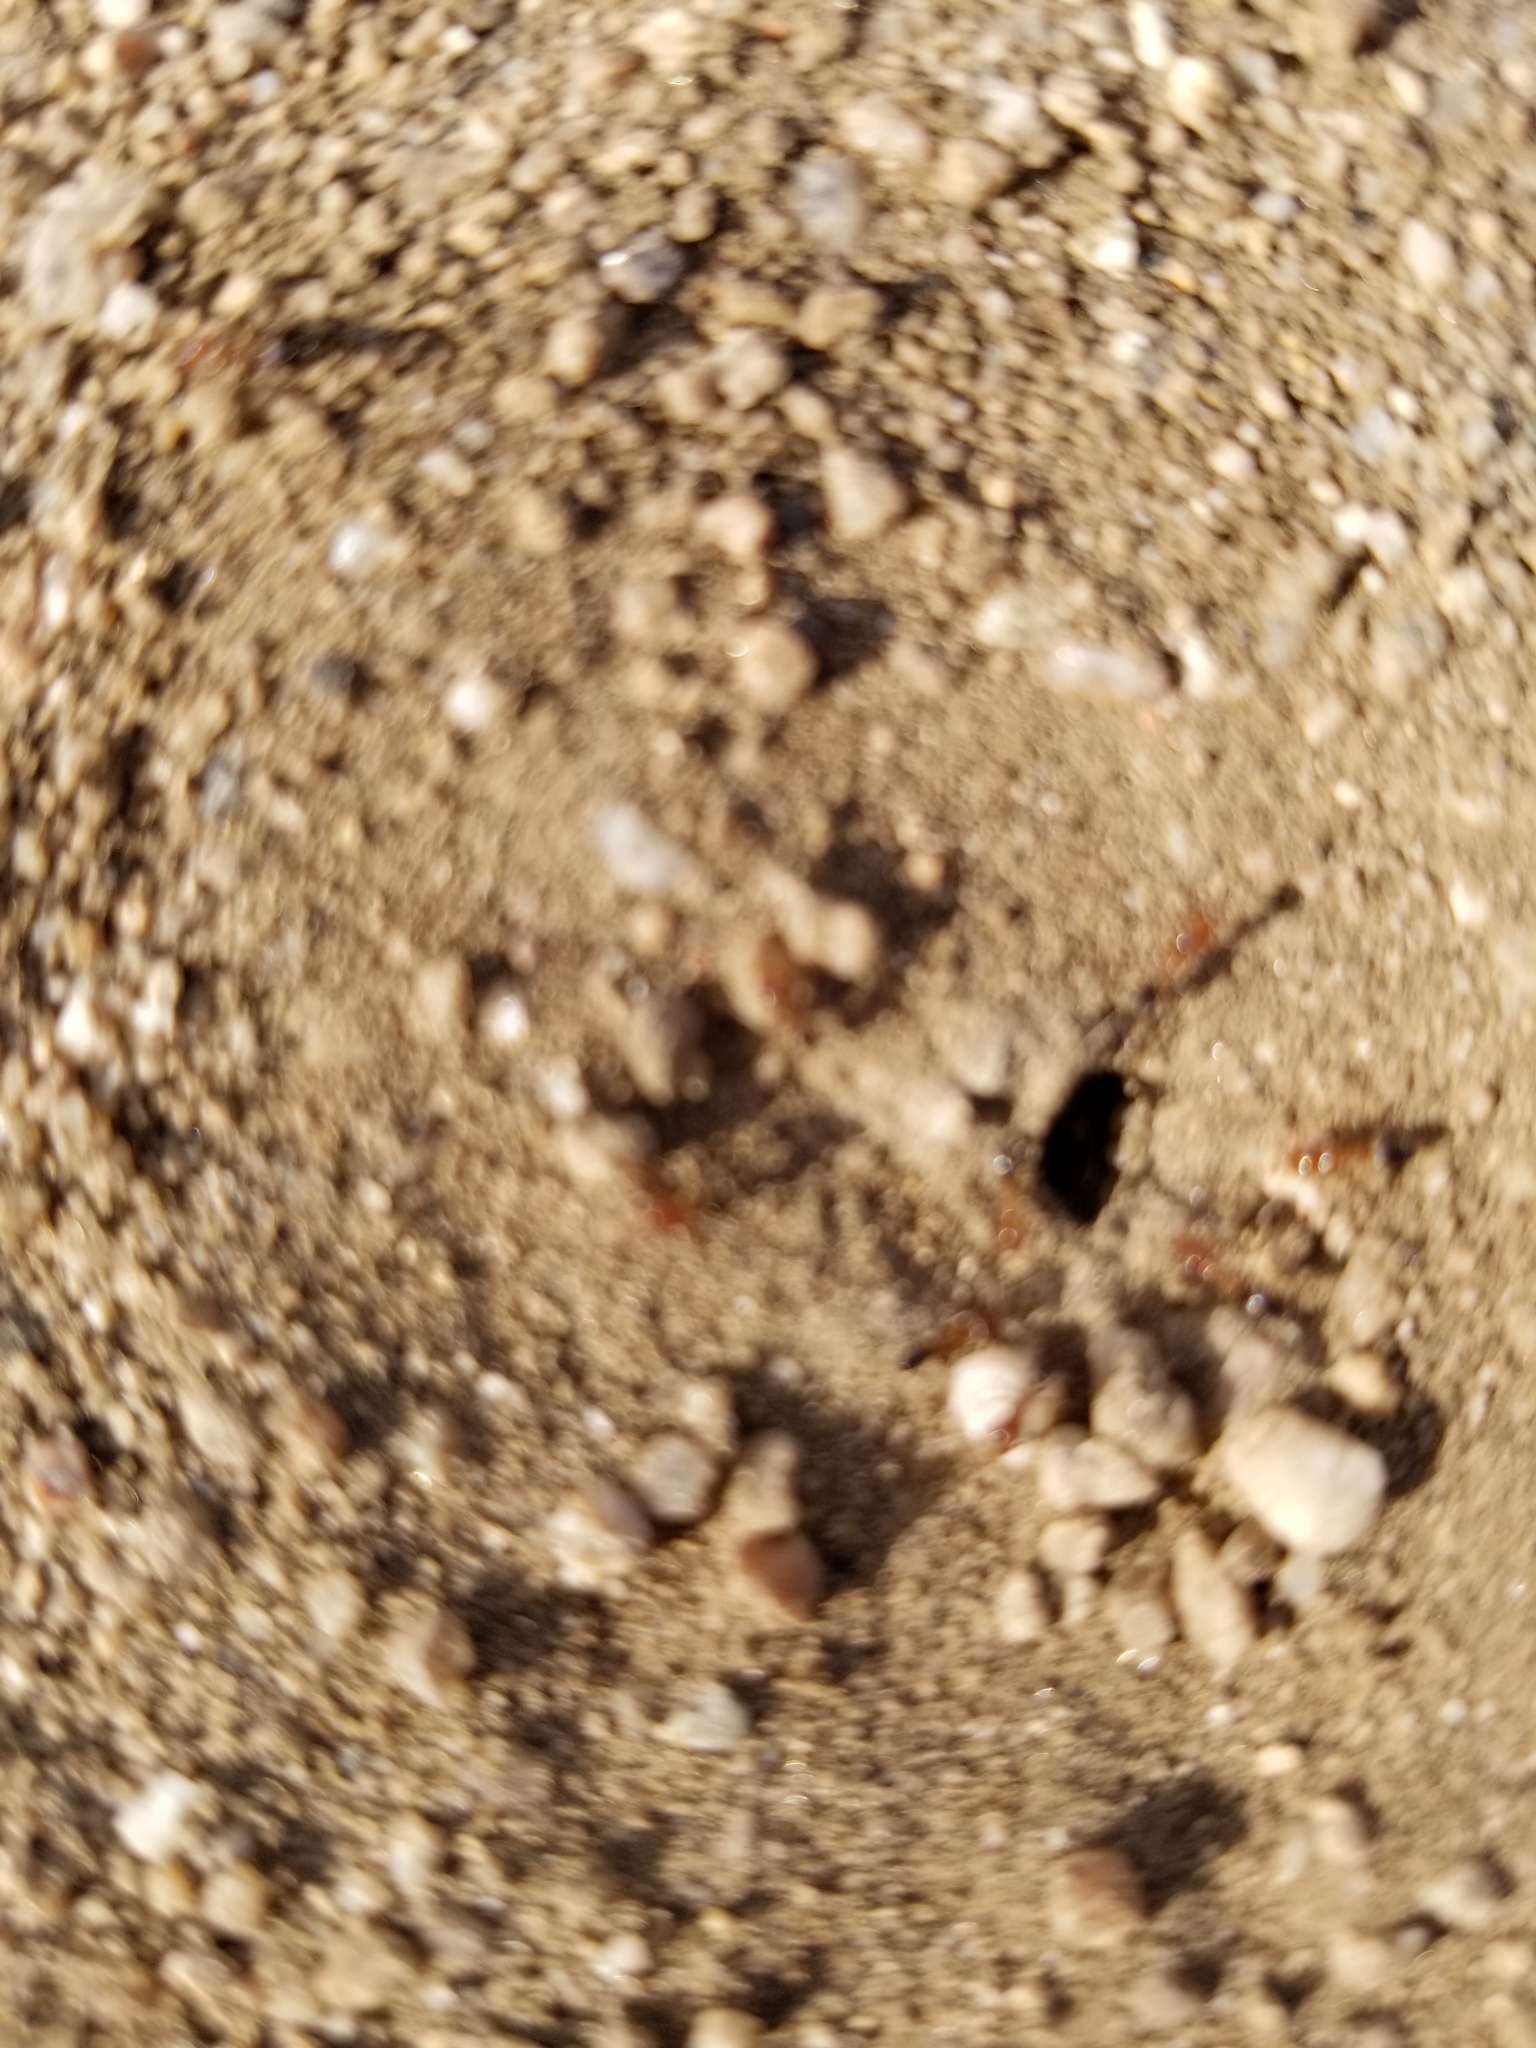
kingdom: Animalia
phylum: Arthropoda
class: Insecta
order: Hymenoptera
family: Formicidae
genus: Dorymyrmex
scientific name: Dorymyrmex bicolor
